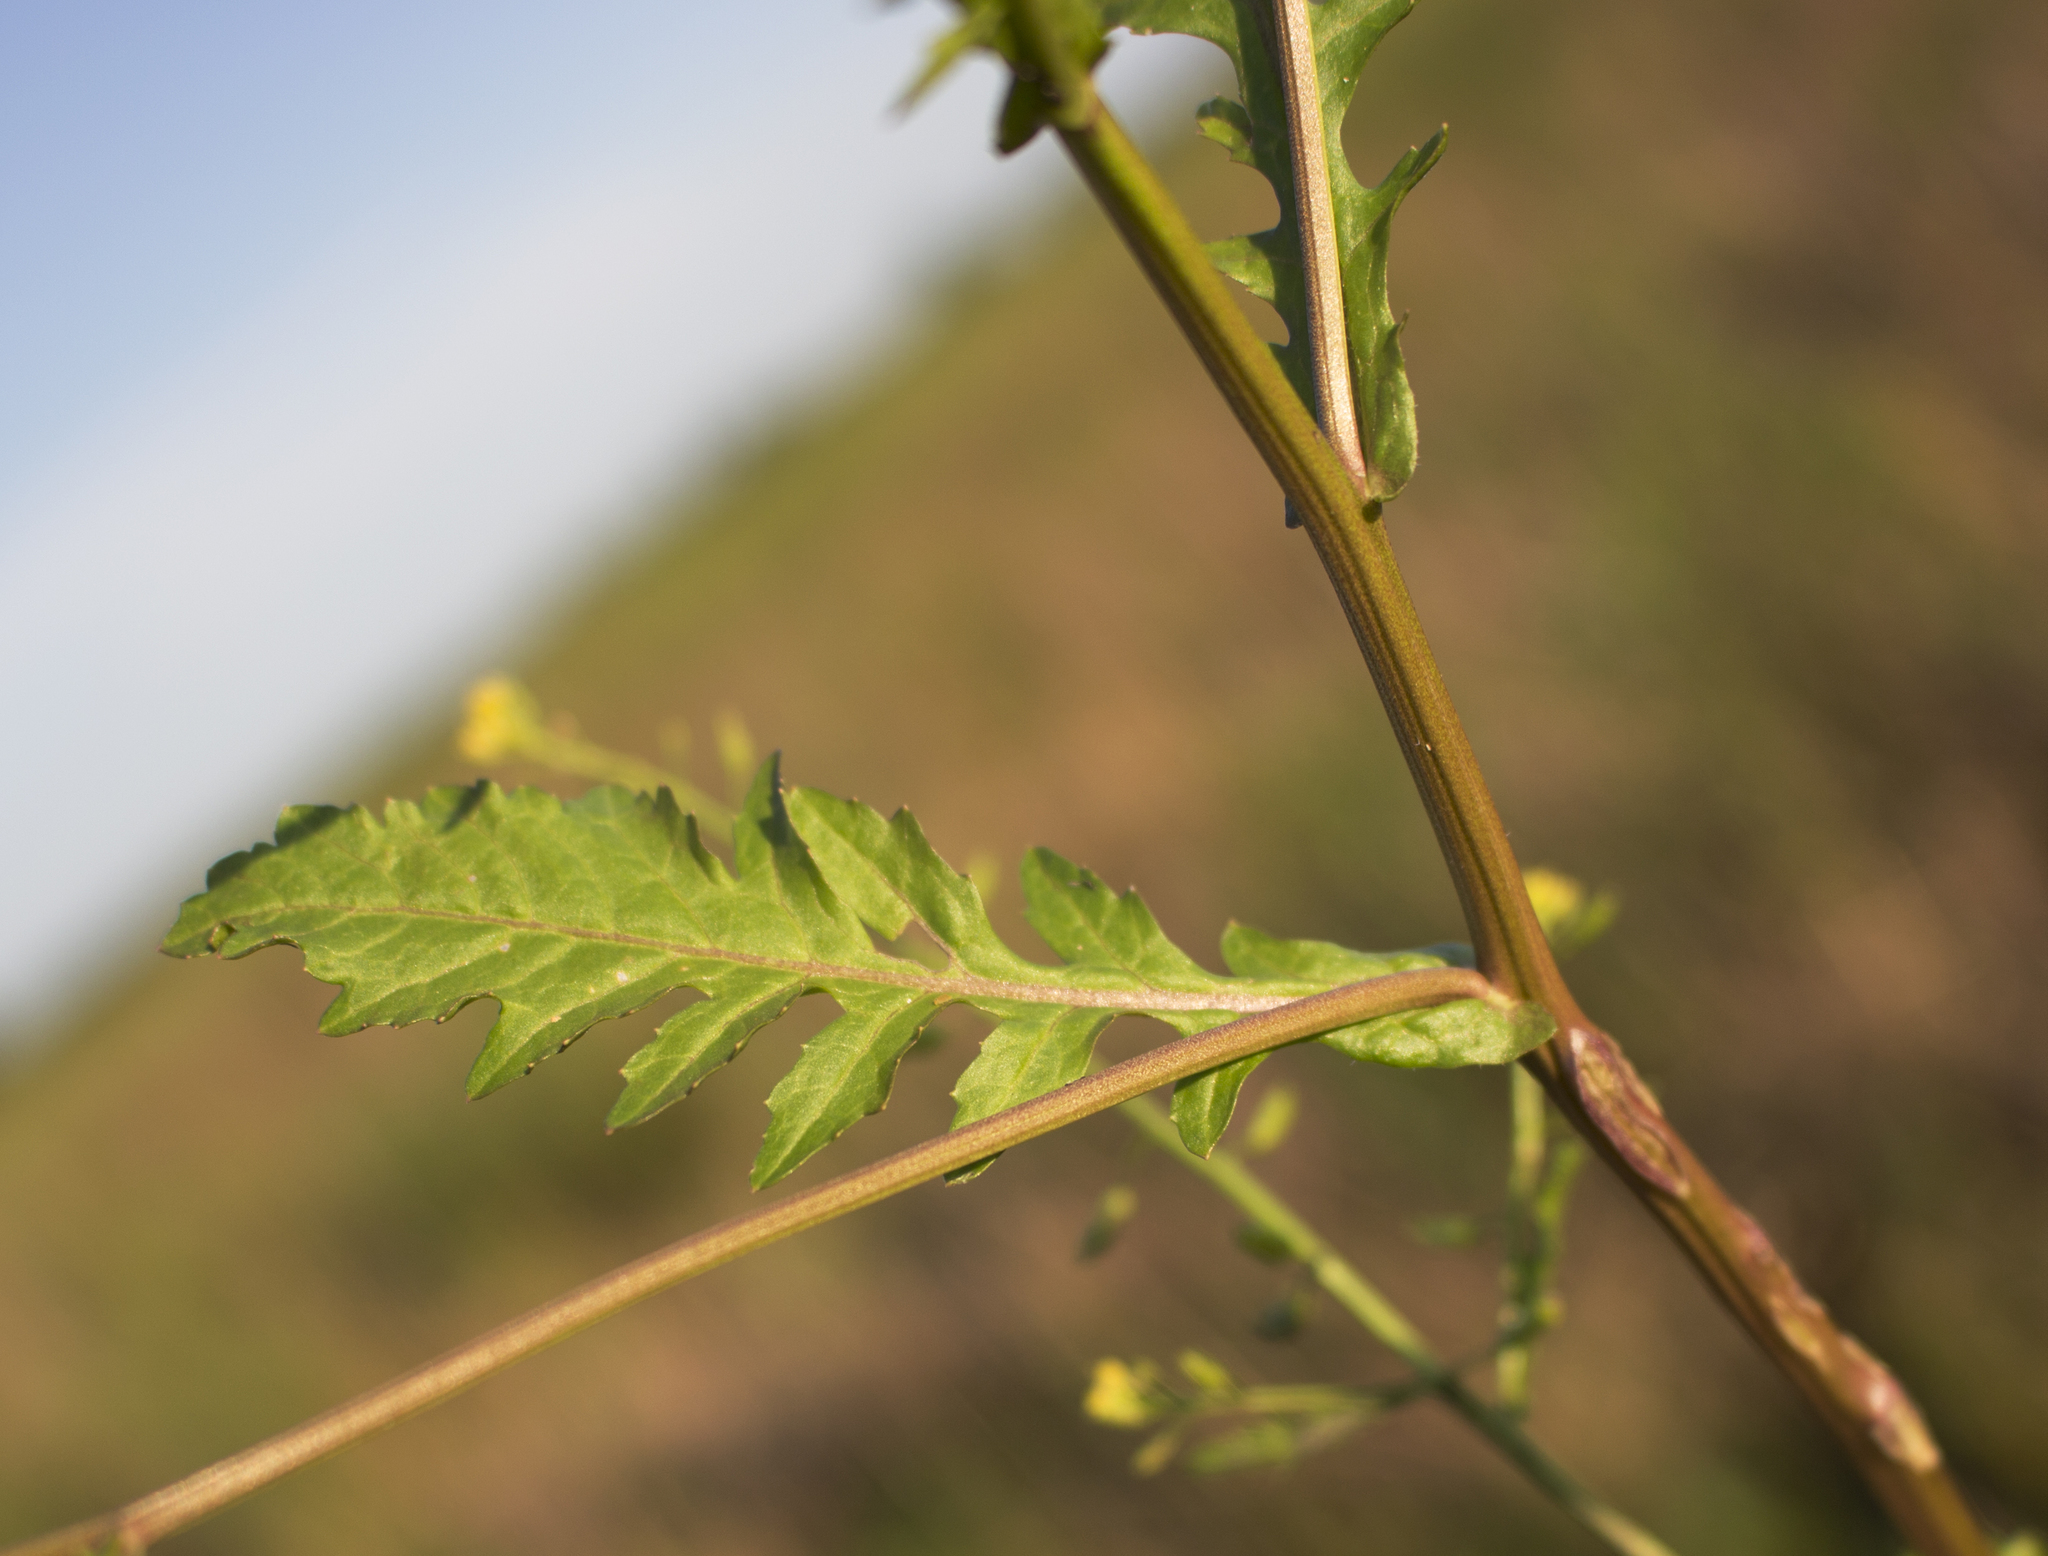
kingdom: Plantae
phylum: Tracheophyta
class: Magnoliopsida
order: Brassicales
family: Brassicaceae
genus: Rorippa
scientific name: Rorippa palustris
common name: Marsh yellow-cress
